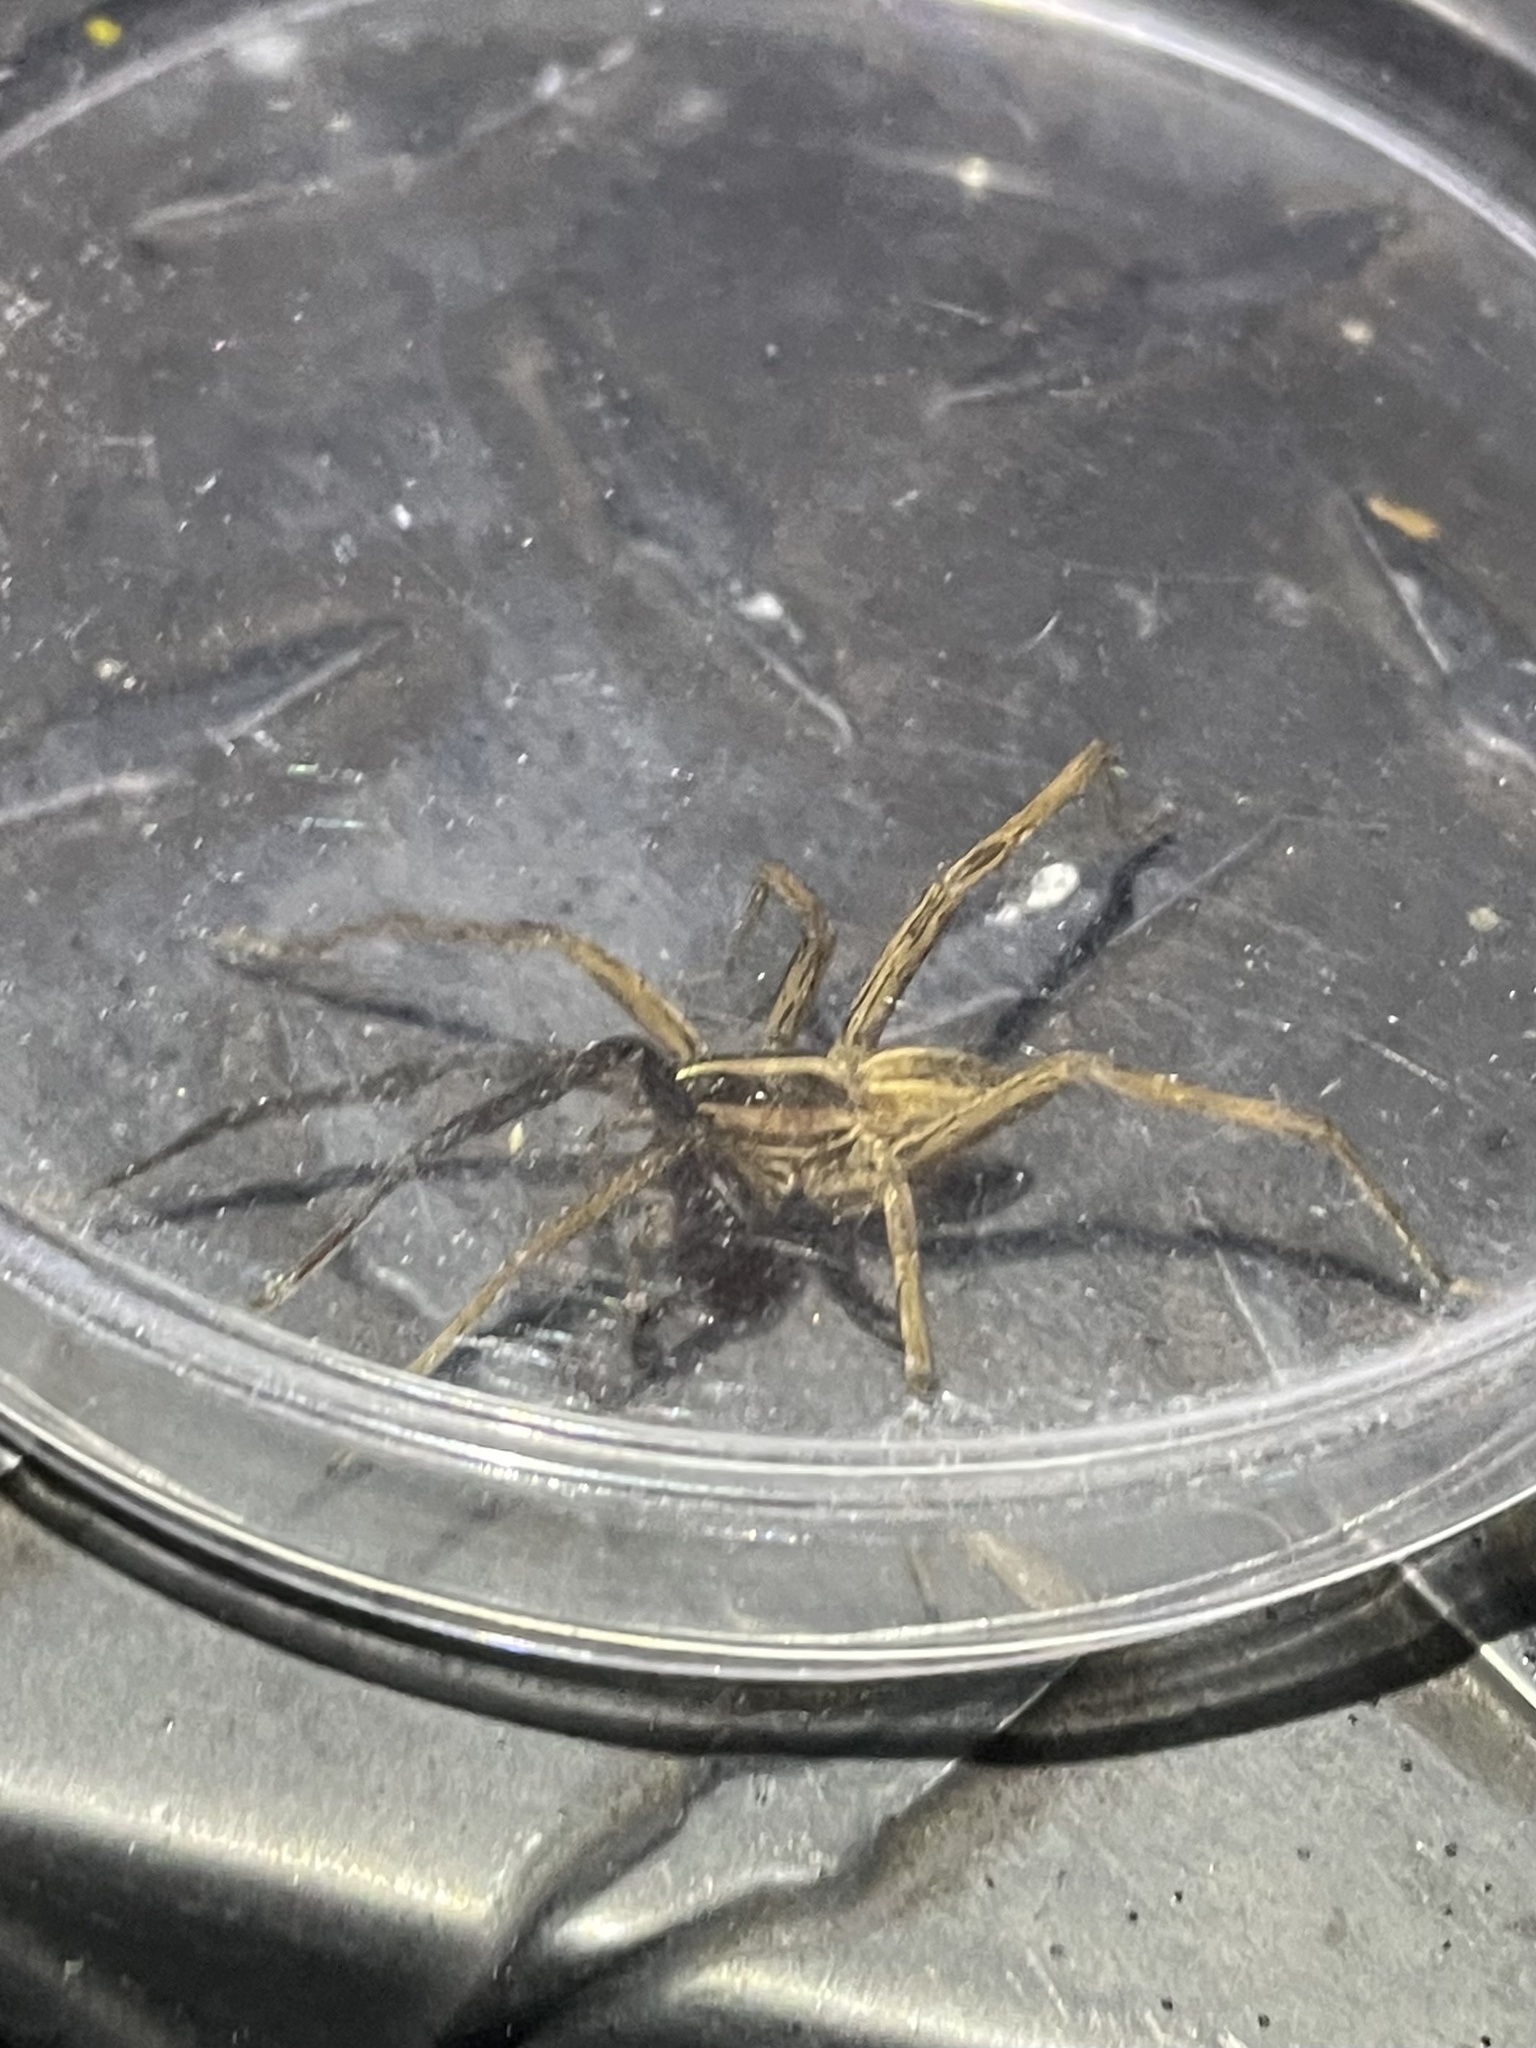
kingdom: Animalia
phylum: Arthropoda
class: Arachnida
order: Araneae
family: Lycosidae
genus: Rabidosa
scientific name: Rabidosa rabida
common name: Rabid wolf spider
